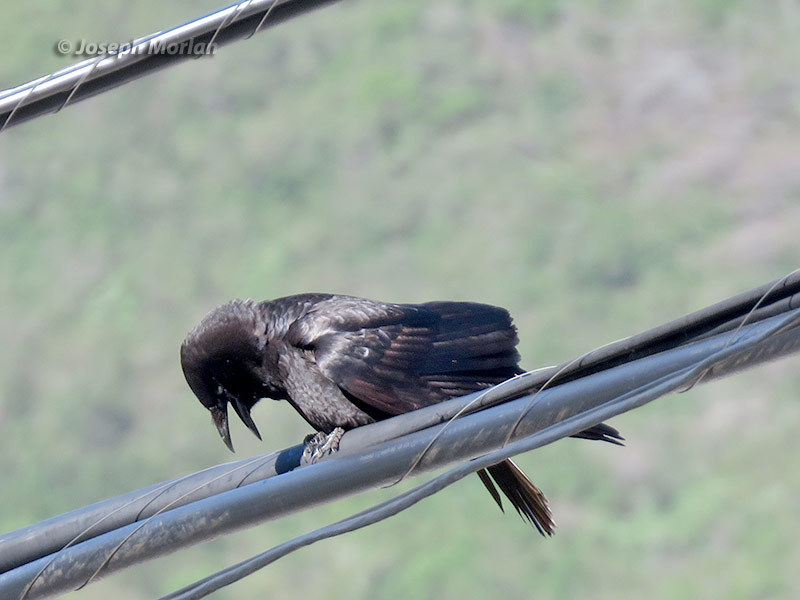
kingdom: Animalia
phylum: Chordata
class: Aves
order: Passeriformes
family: Corvidae
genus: Corvus
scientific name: Corvus brachyrhynchos
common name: American crow
